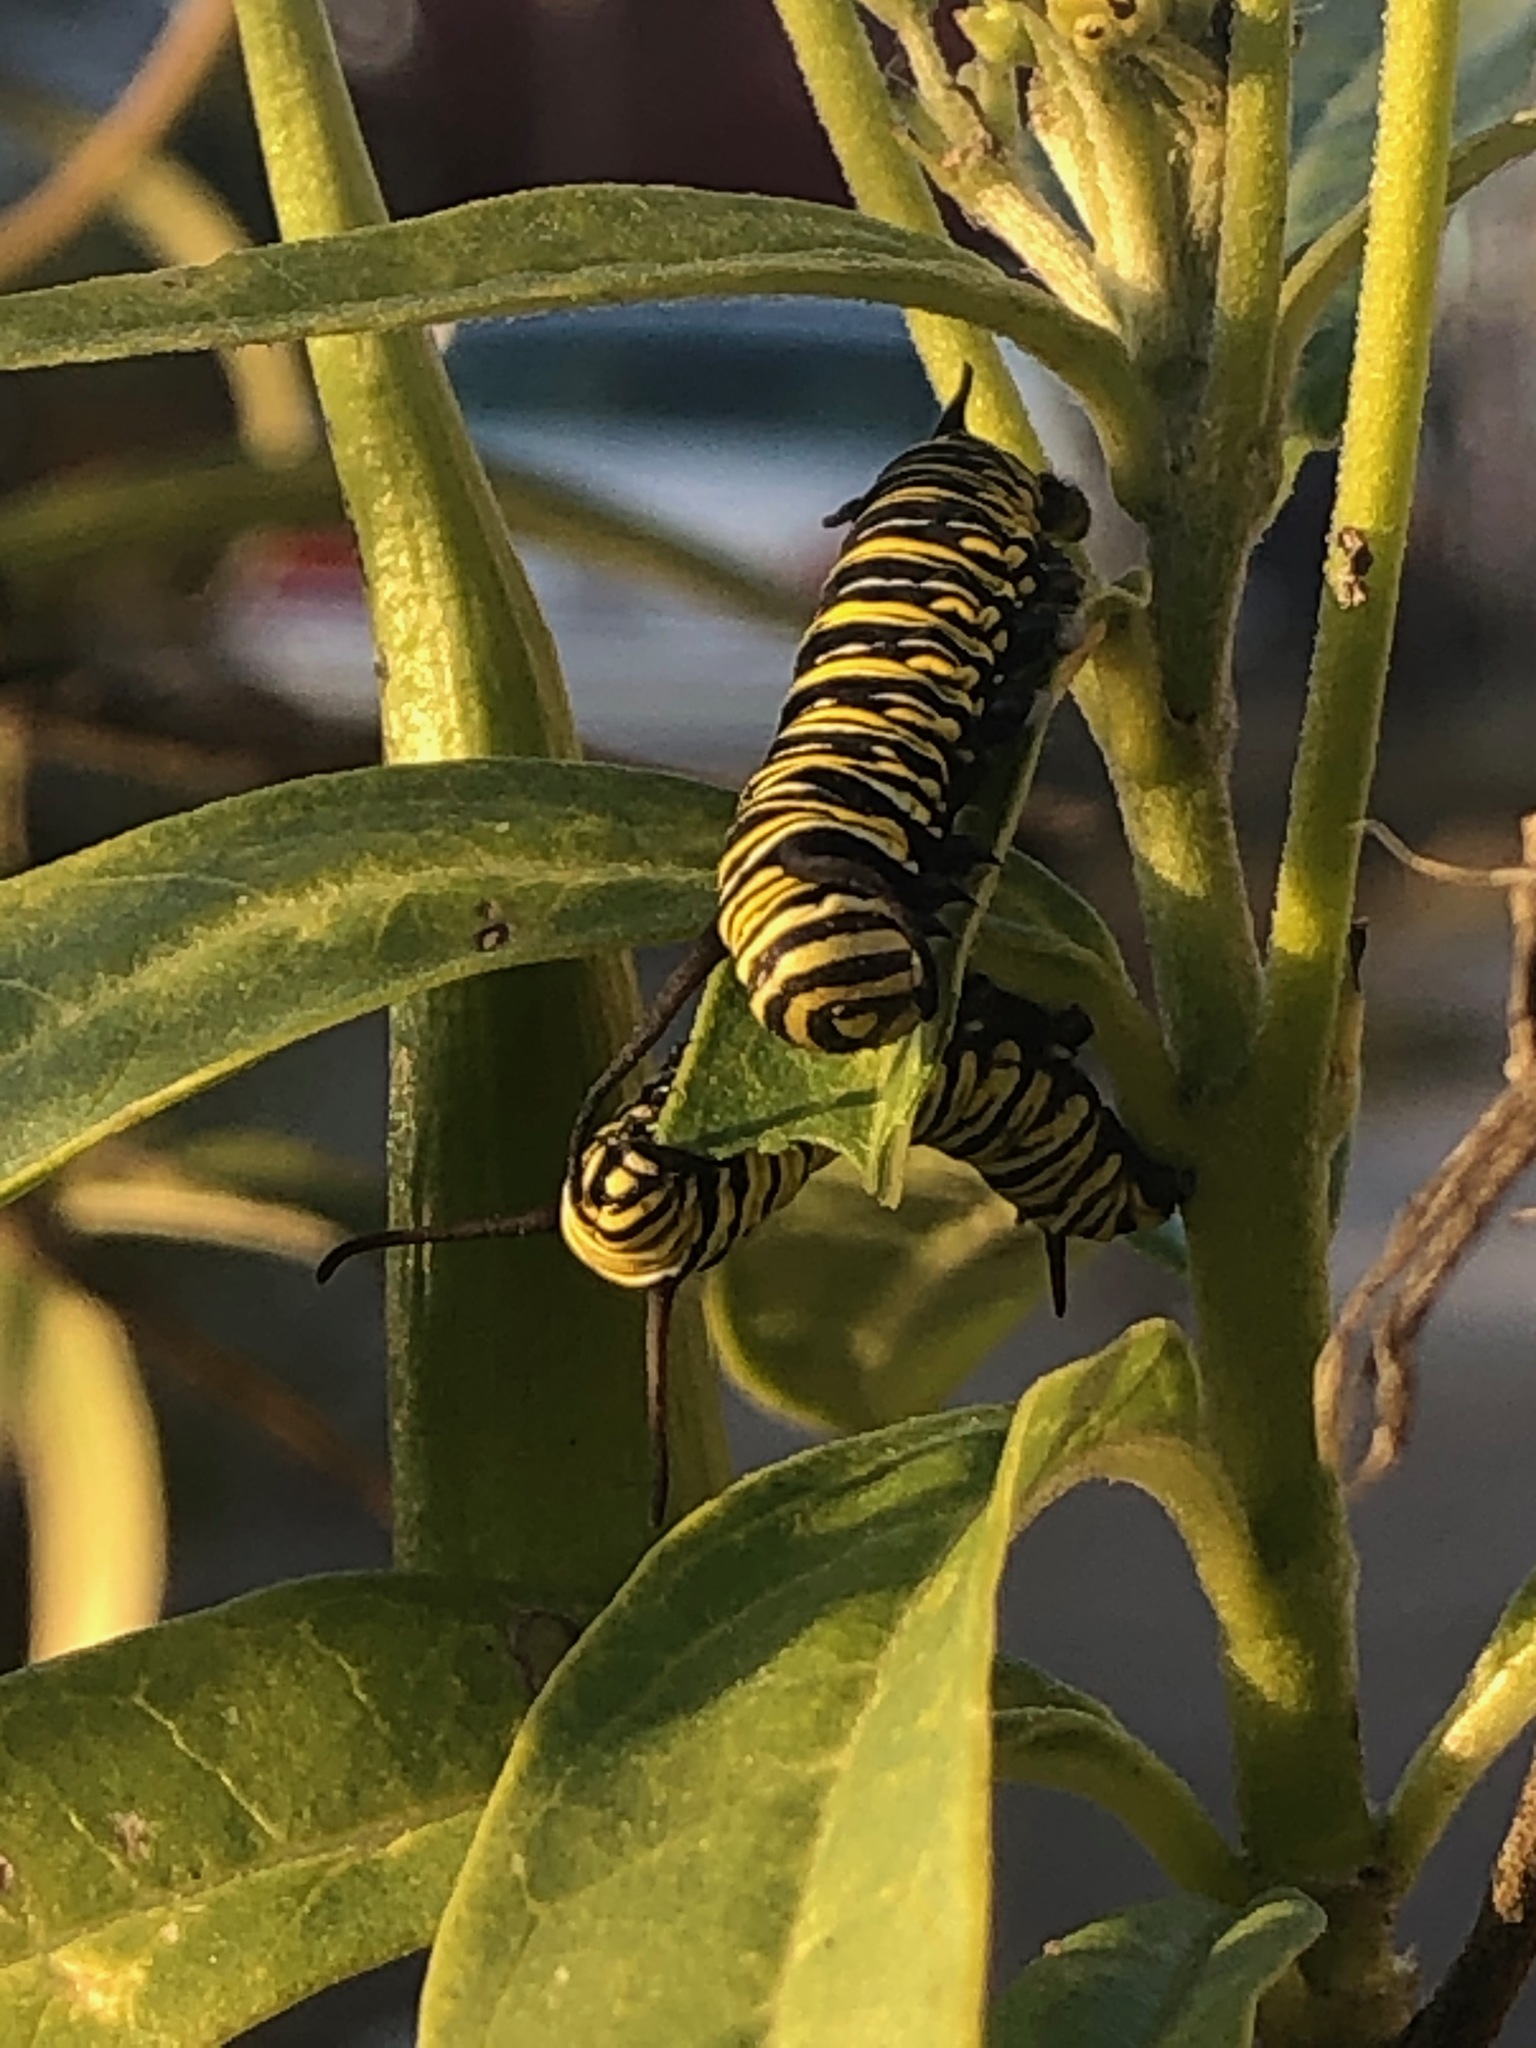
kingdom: Animalia
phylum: Arthropoda
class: Insecta
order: Lepidoptera
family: Nymphalidae
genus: Danaus
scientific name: Danaus plexippus
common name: Monarch
